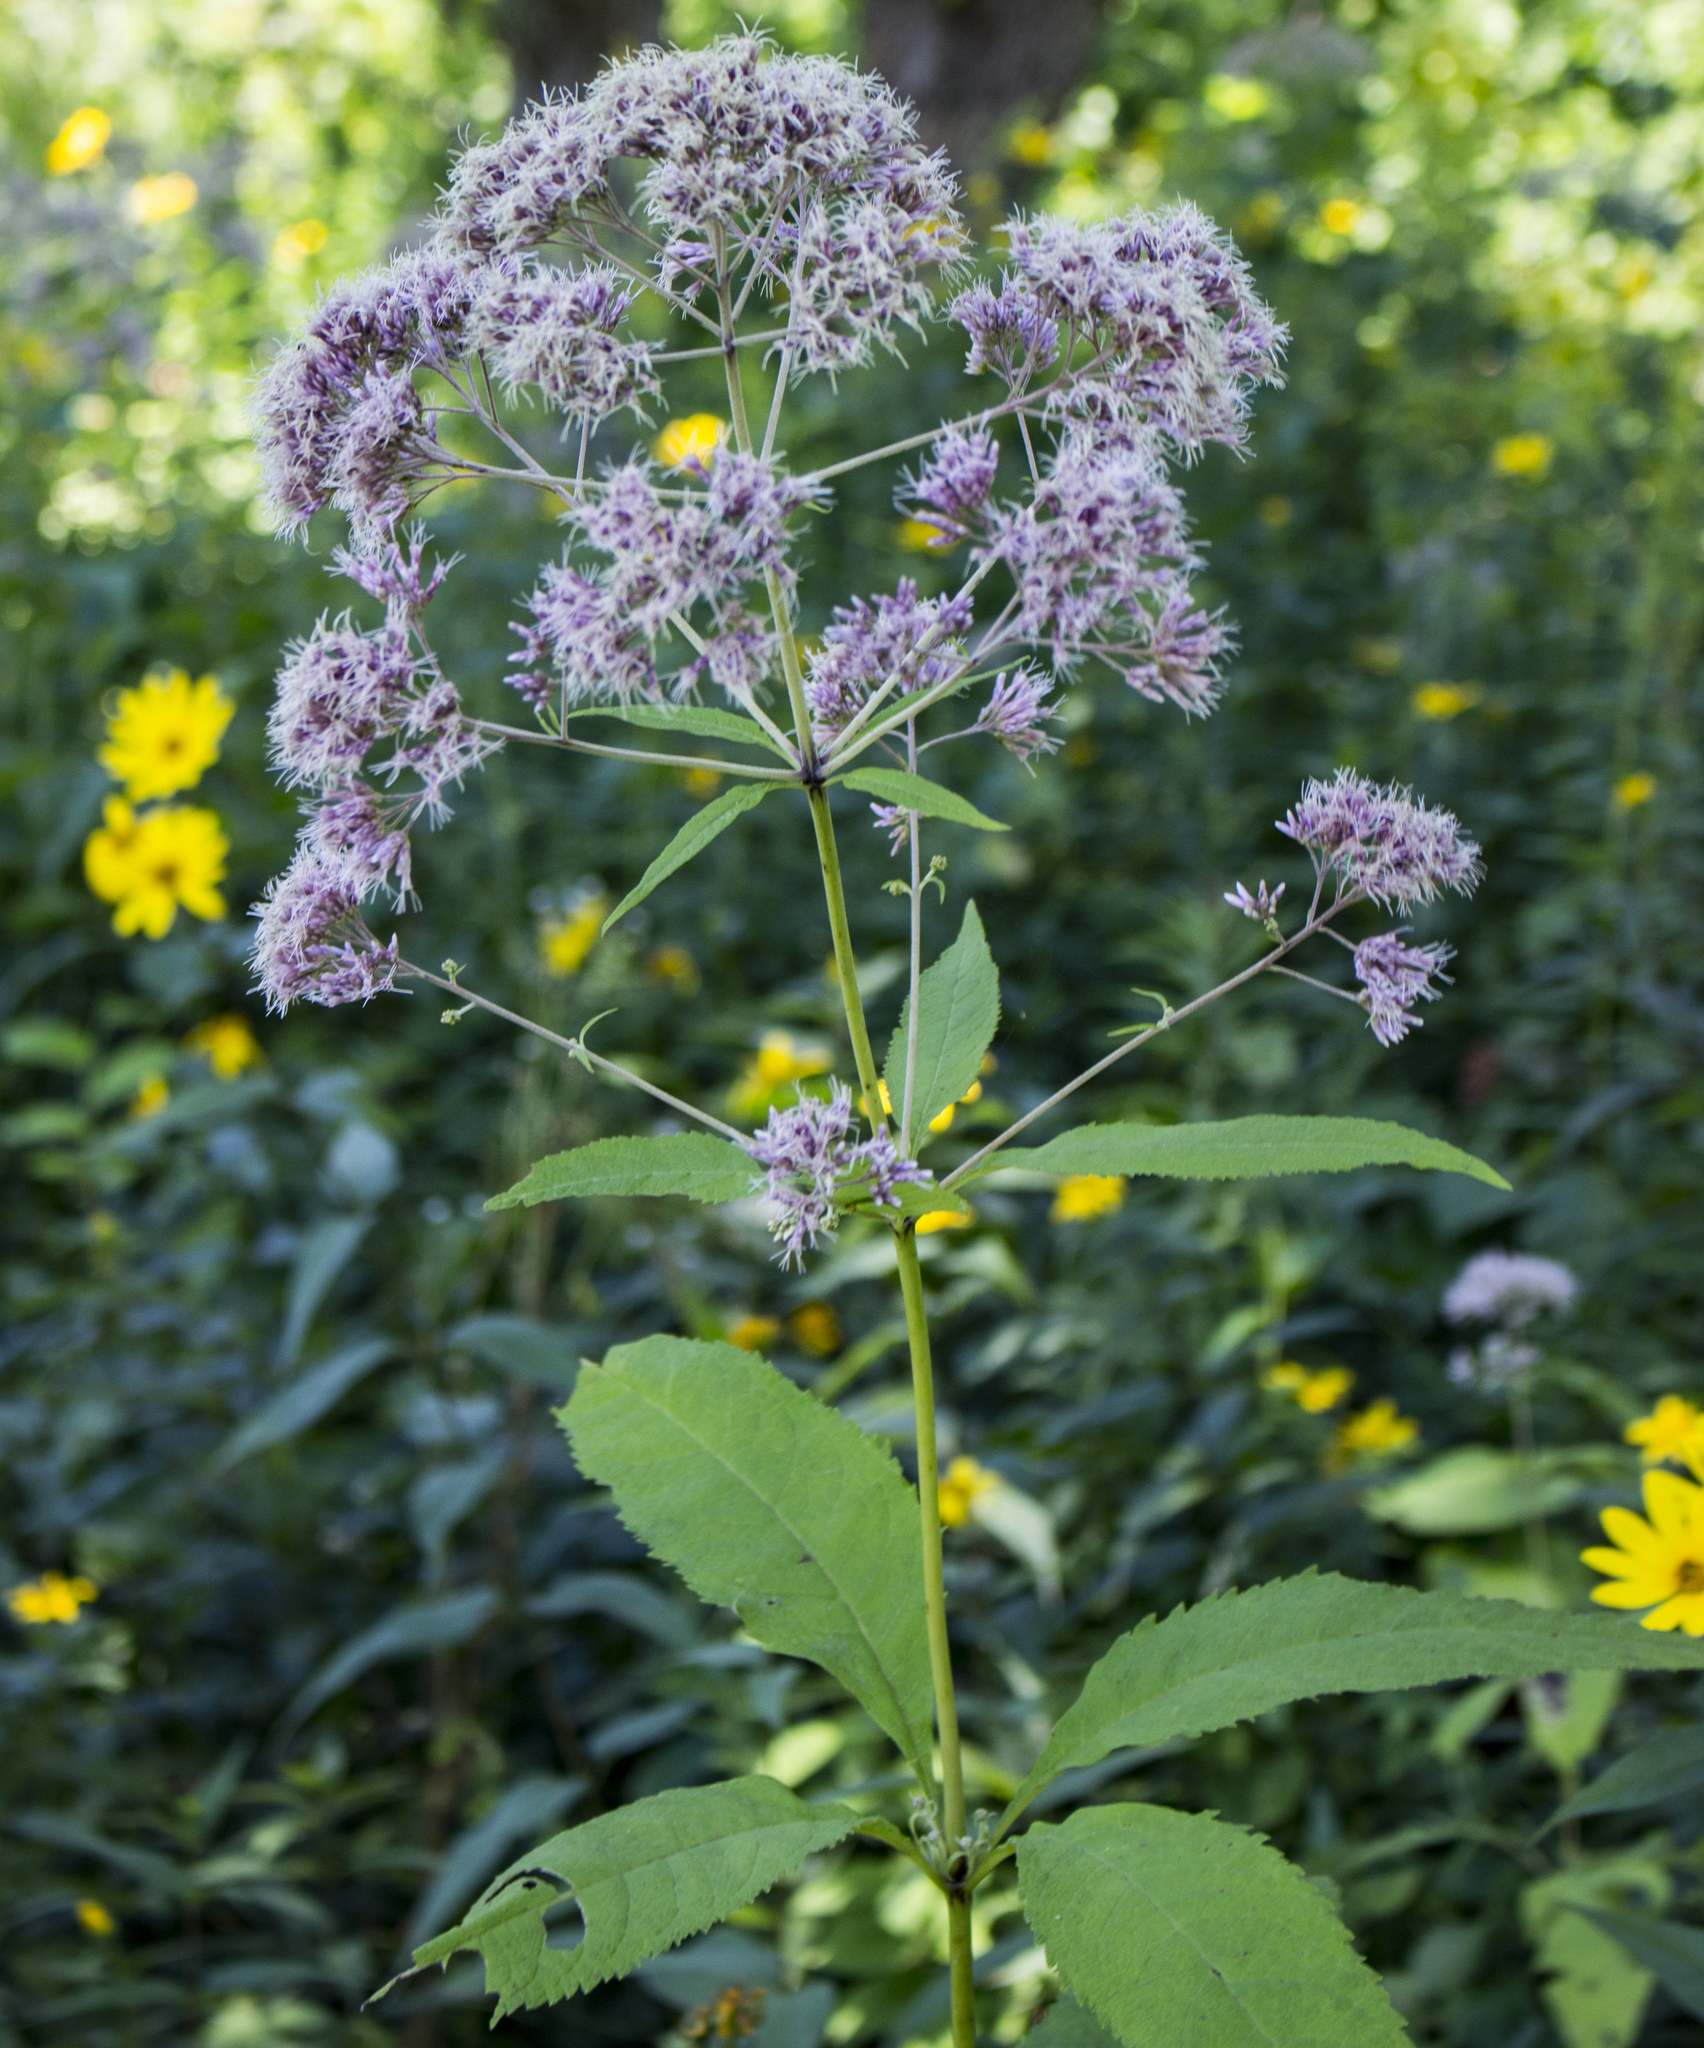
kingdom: Plantae
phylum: Tracheophyta
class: Magnoliopsida
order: Asterales
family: Asteraceae
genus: Eutrochium
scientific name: Eutrochium purpureum
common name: Gravelroot
